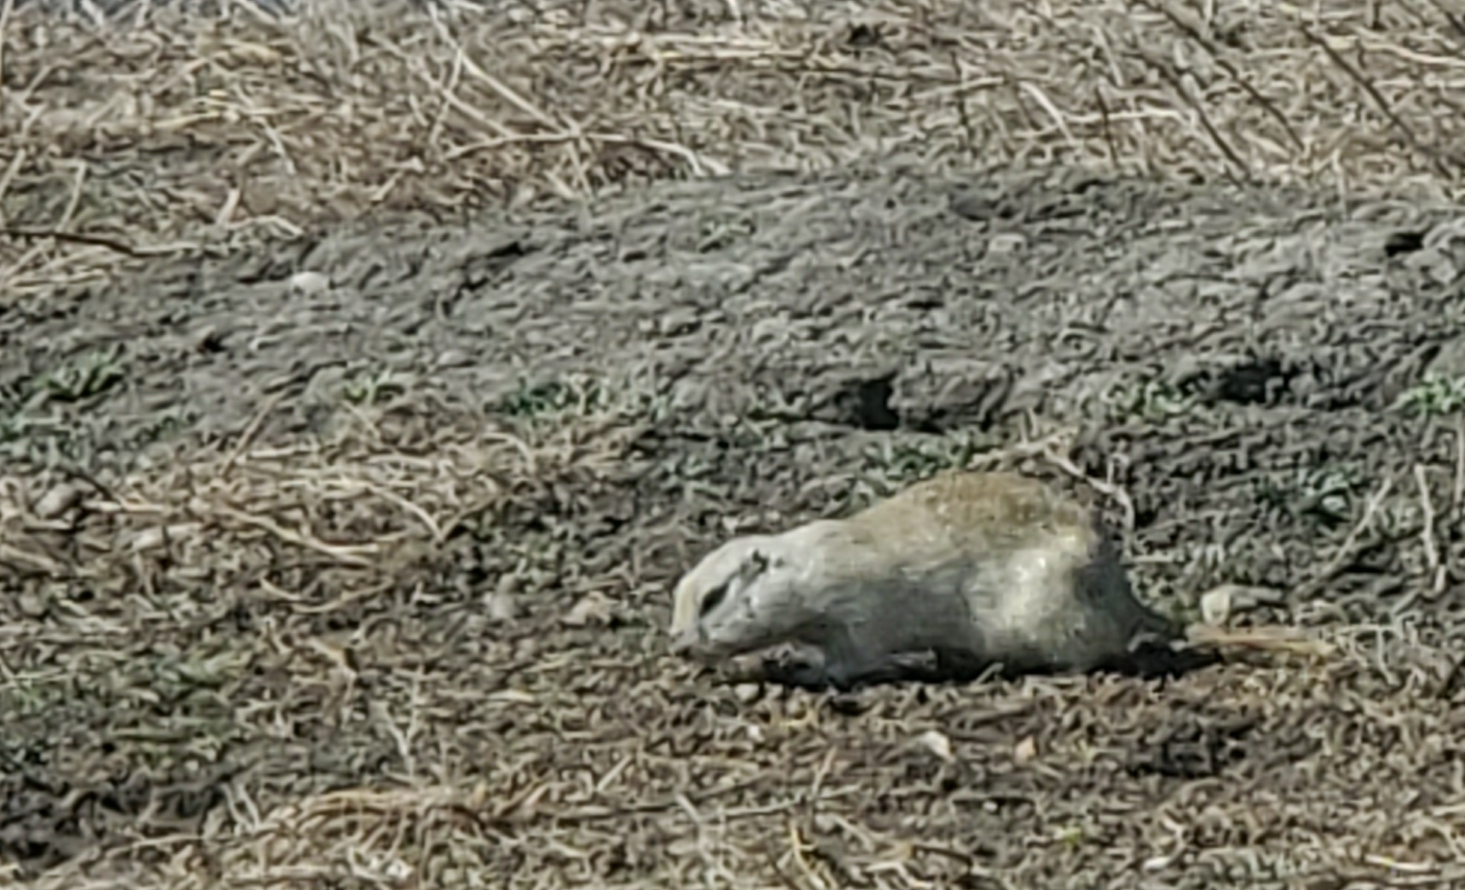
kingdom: Animalia
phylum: Chordata
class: Mammalia
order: Rodentia
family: Sciuridae
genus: Urocitellus
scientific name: Urocitellus richardsonii
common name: Richardson's ground squirrel
